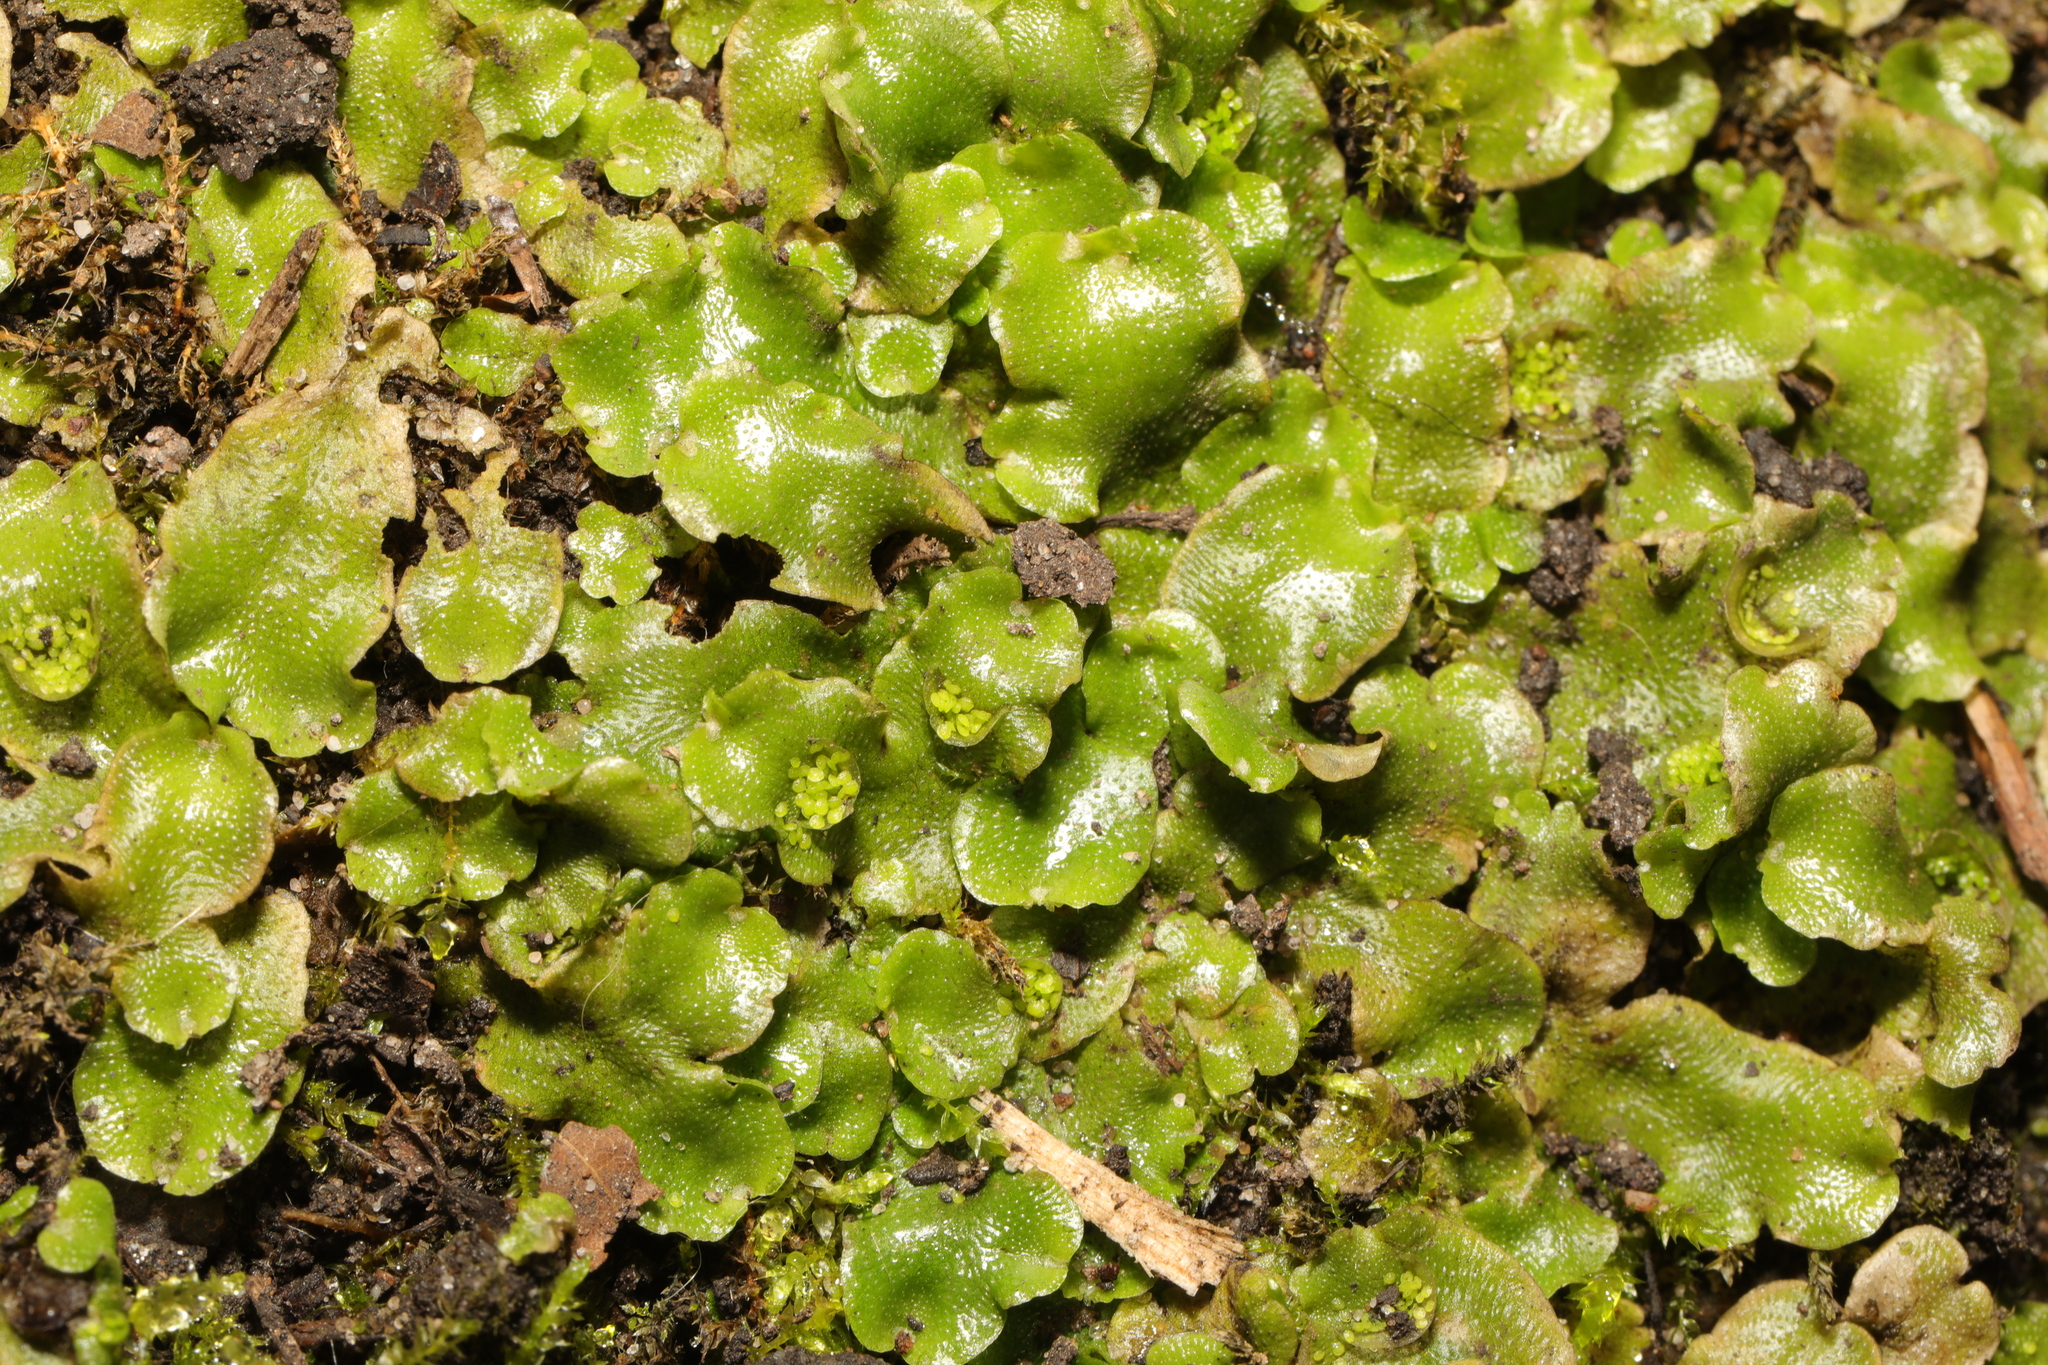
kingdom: Plantae
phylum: Marchantiophyta
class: Marchantiopsida
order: Lunulariales
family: Lunulariaceae
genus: Lunularia
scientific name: Lunularia cruciata
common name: Crescent-cup liverwort
